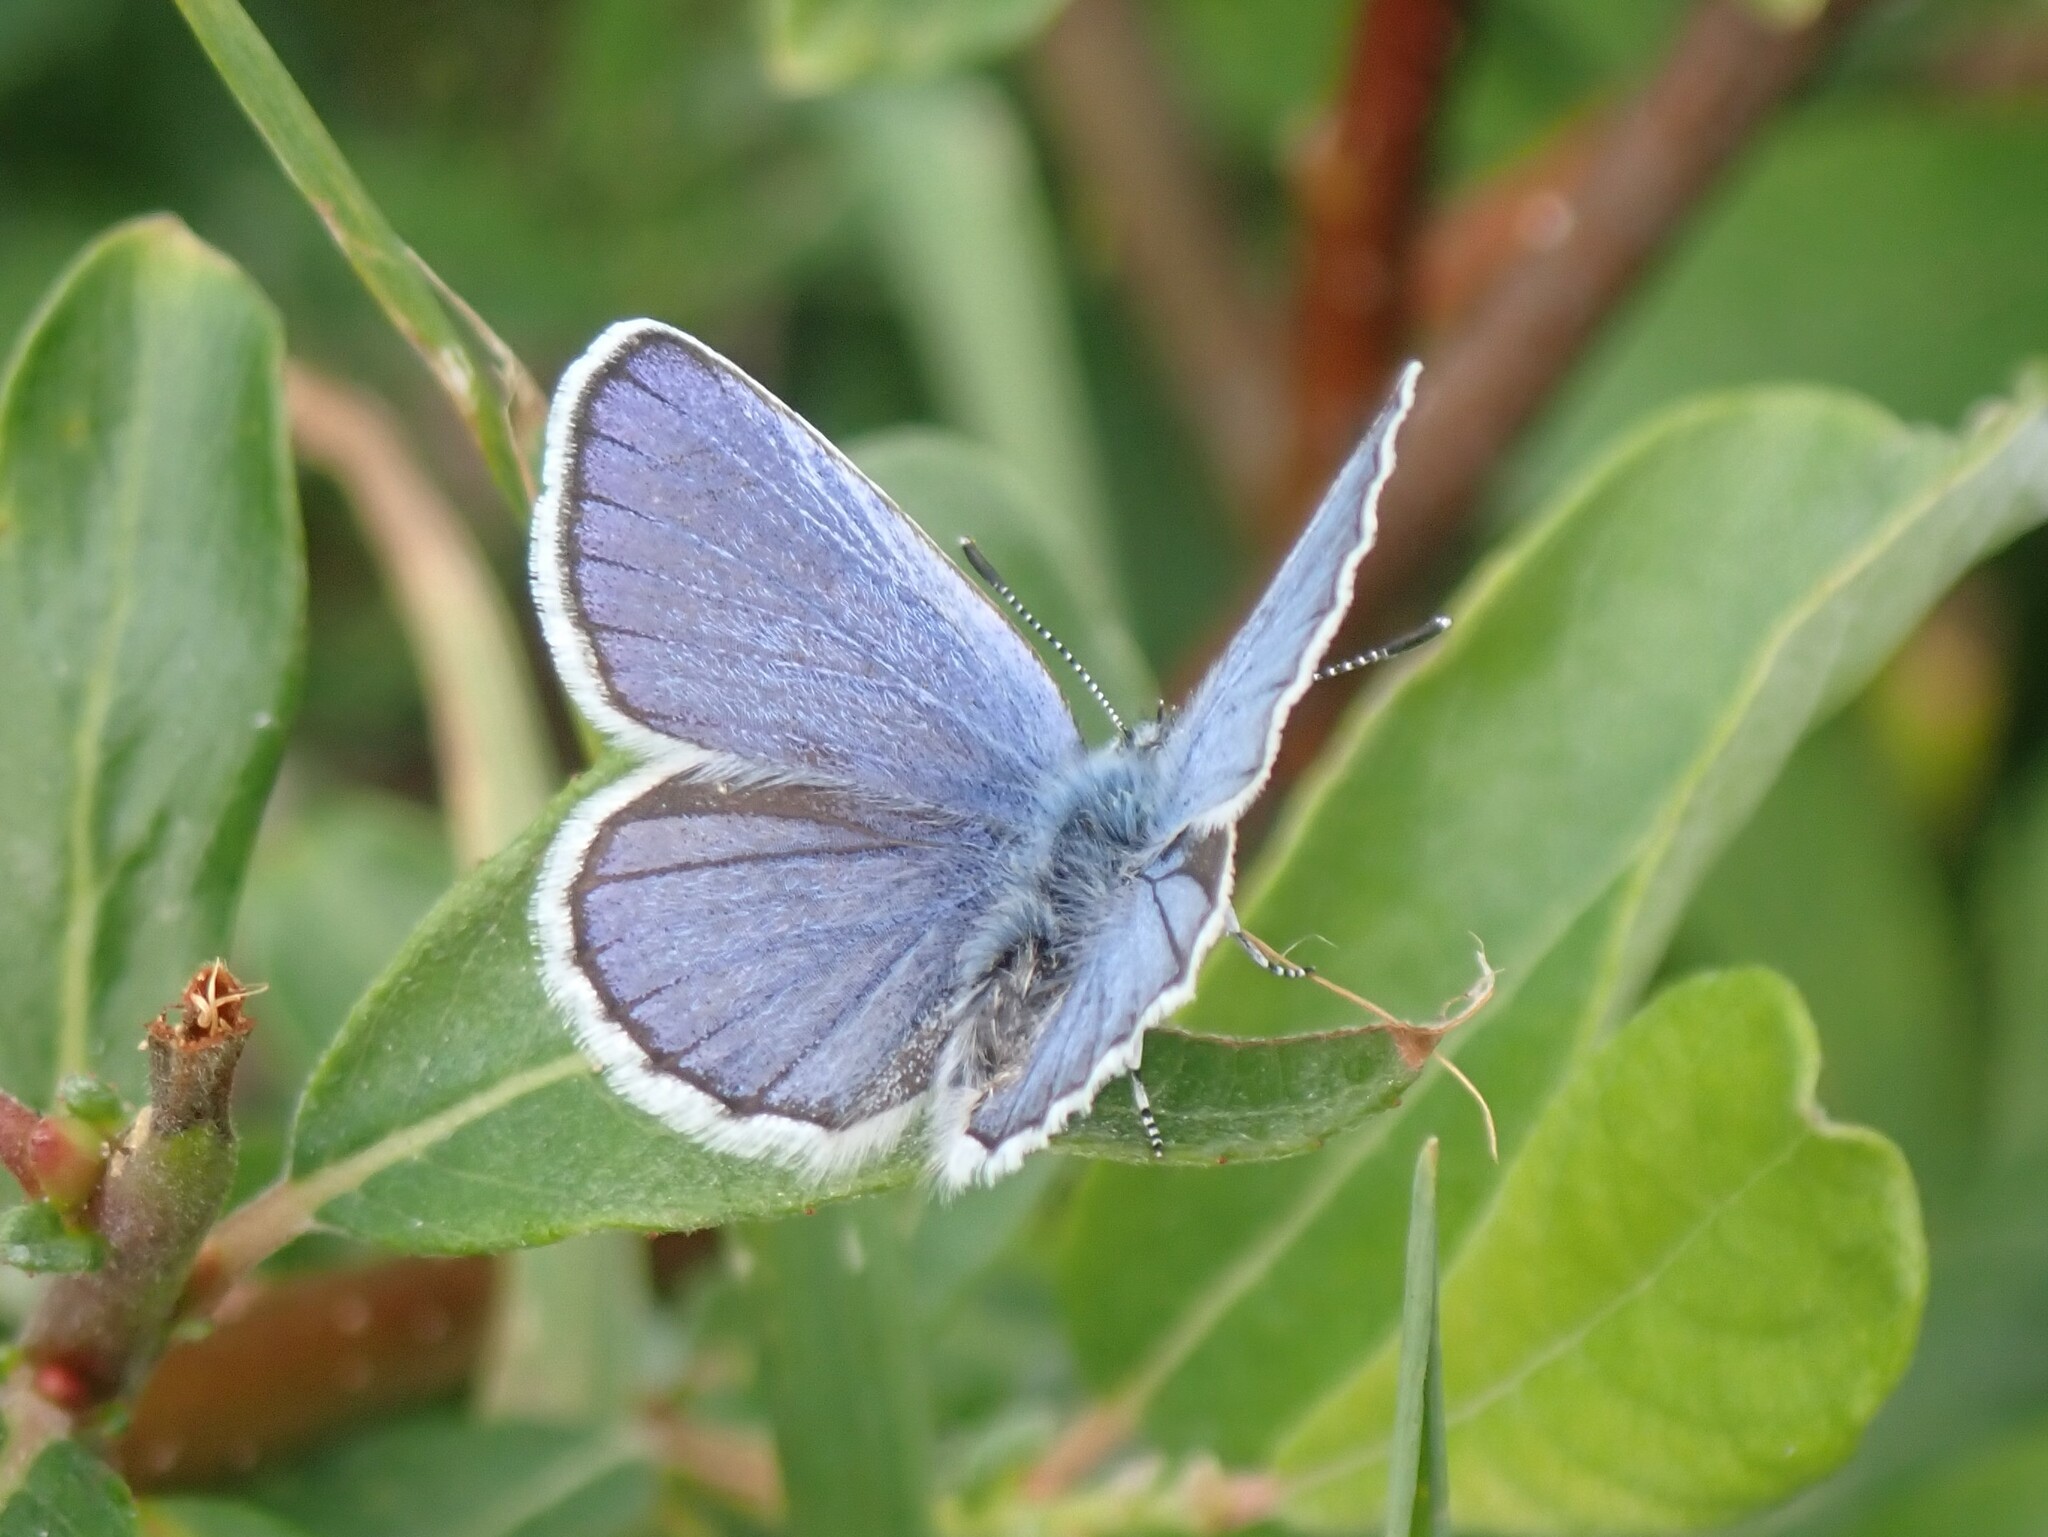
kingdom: Animalia
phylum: Arthropoda
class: Insecta
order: Lepidoptera
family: Lycaenidae
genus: Lycaeides
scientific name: Lycaeides anna
